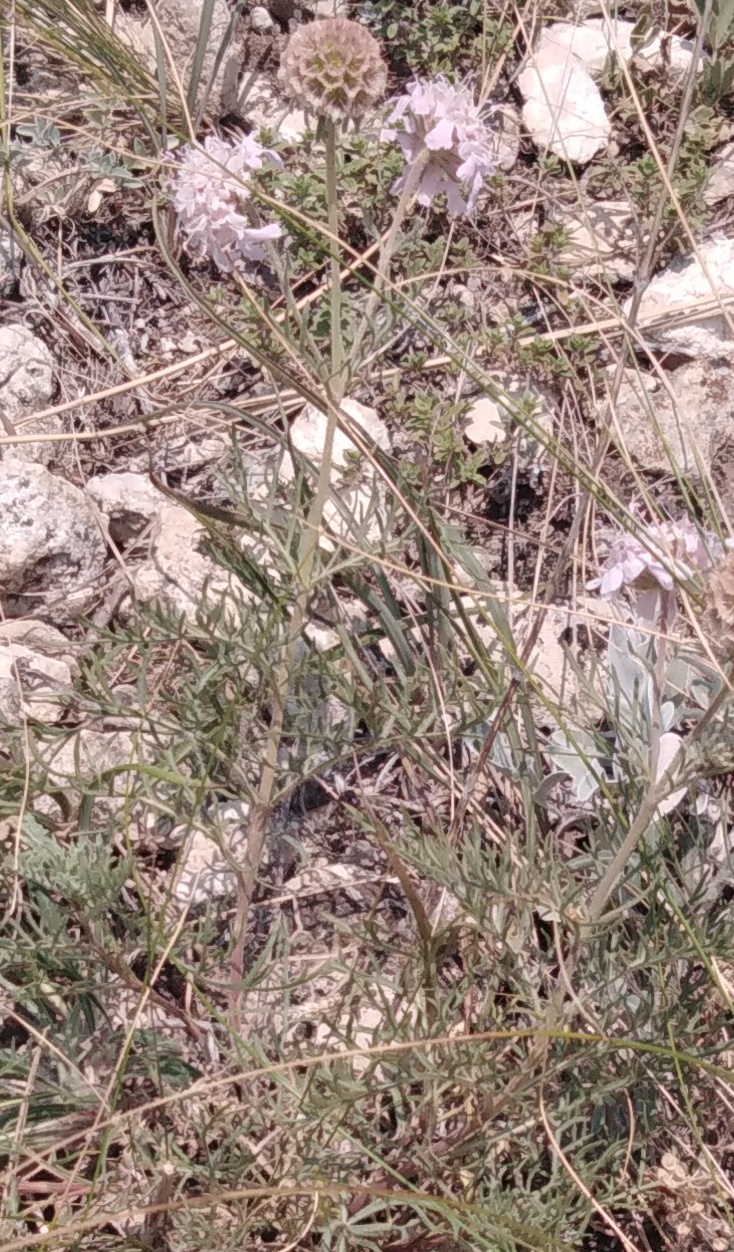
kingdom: Plantae
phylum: Tracheophyta
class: Magnoliopsida
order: Dipsacales
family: Caprifoliaceae
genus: Lomelosia
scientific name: Lomelosia isetensis
